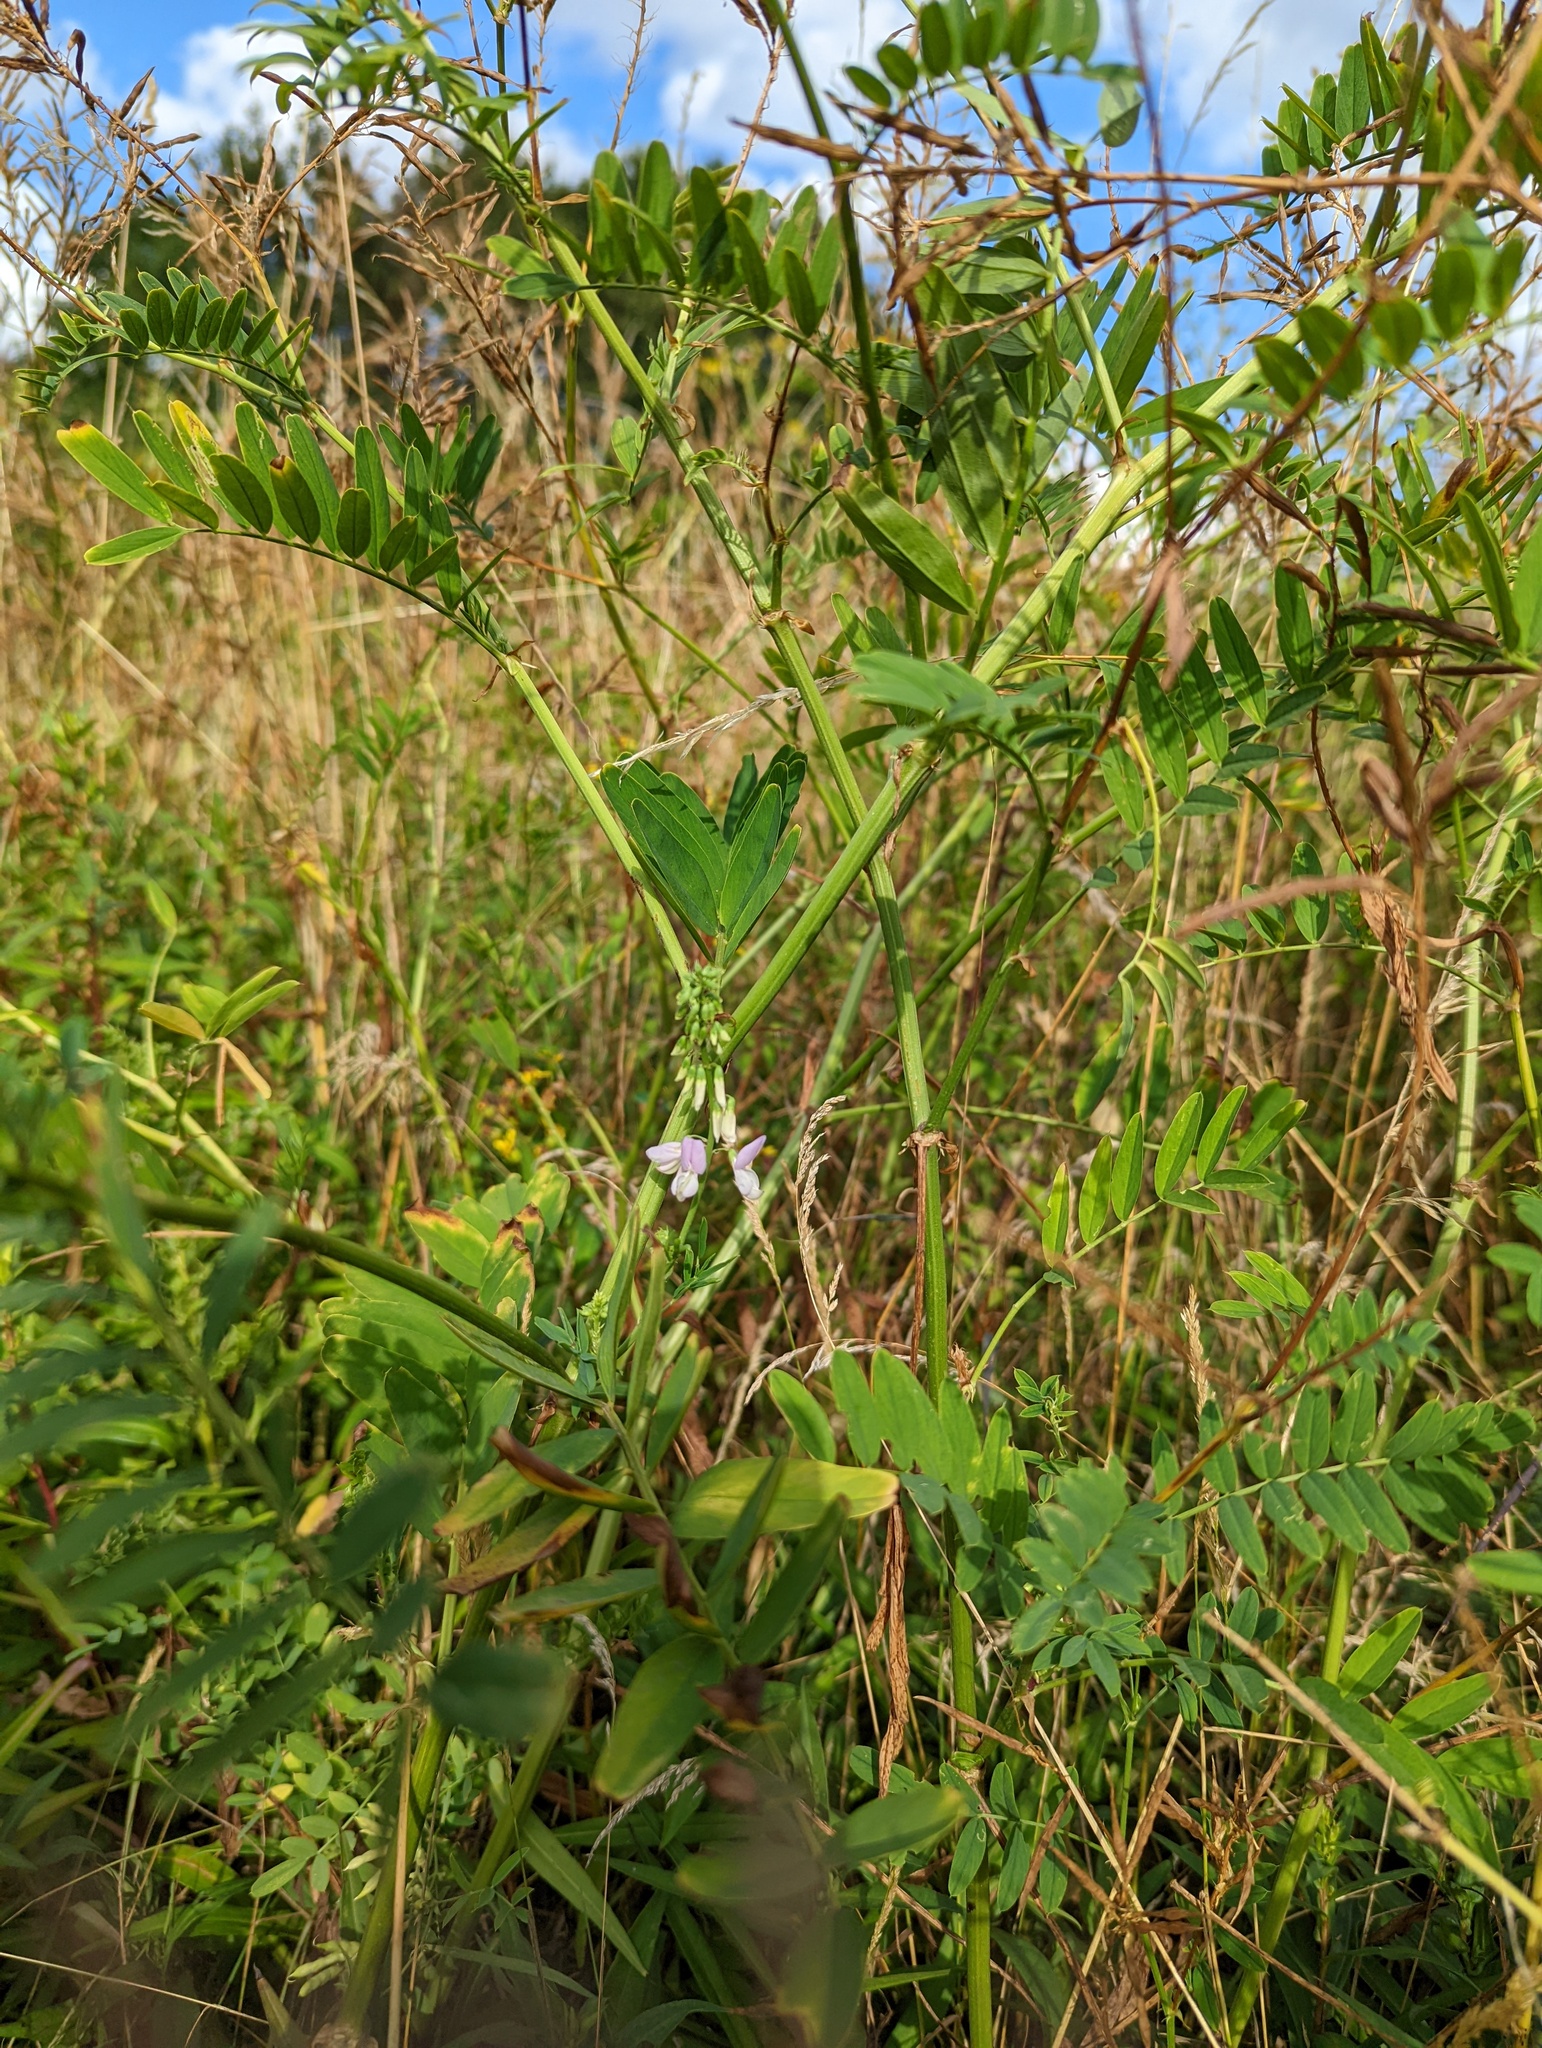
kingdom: Plantae
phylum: Tracheophyta
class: Magnoliopsida
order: Fabales
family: Fabaceae
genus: Galega
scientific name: Galega officinalis
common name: Goat's-rue
